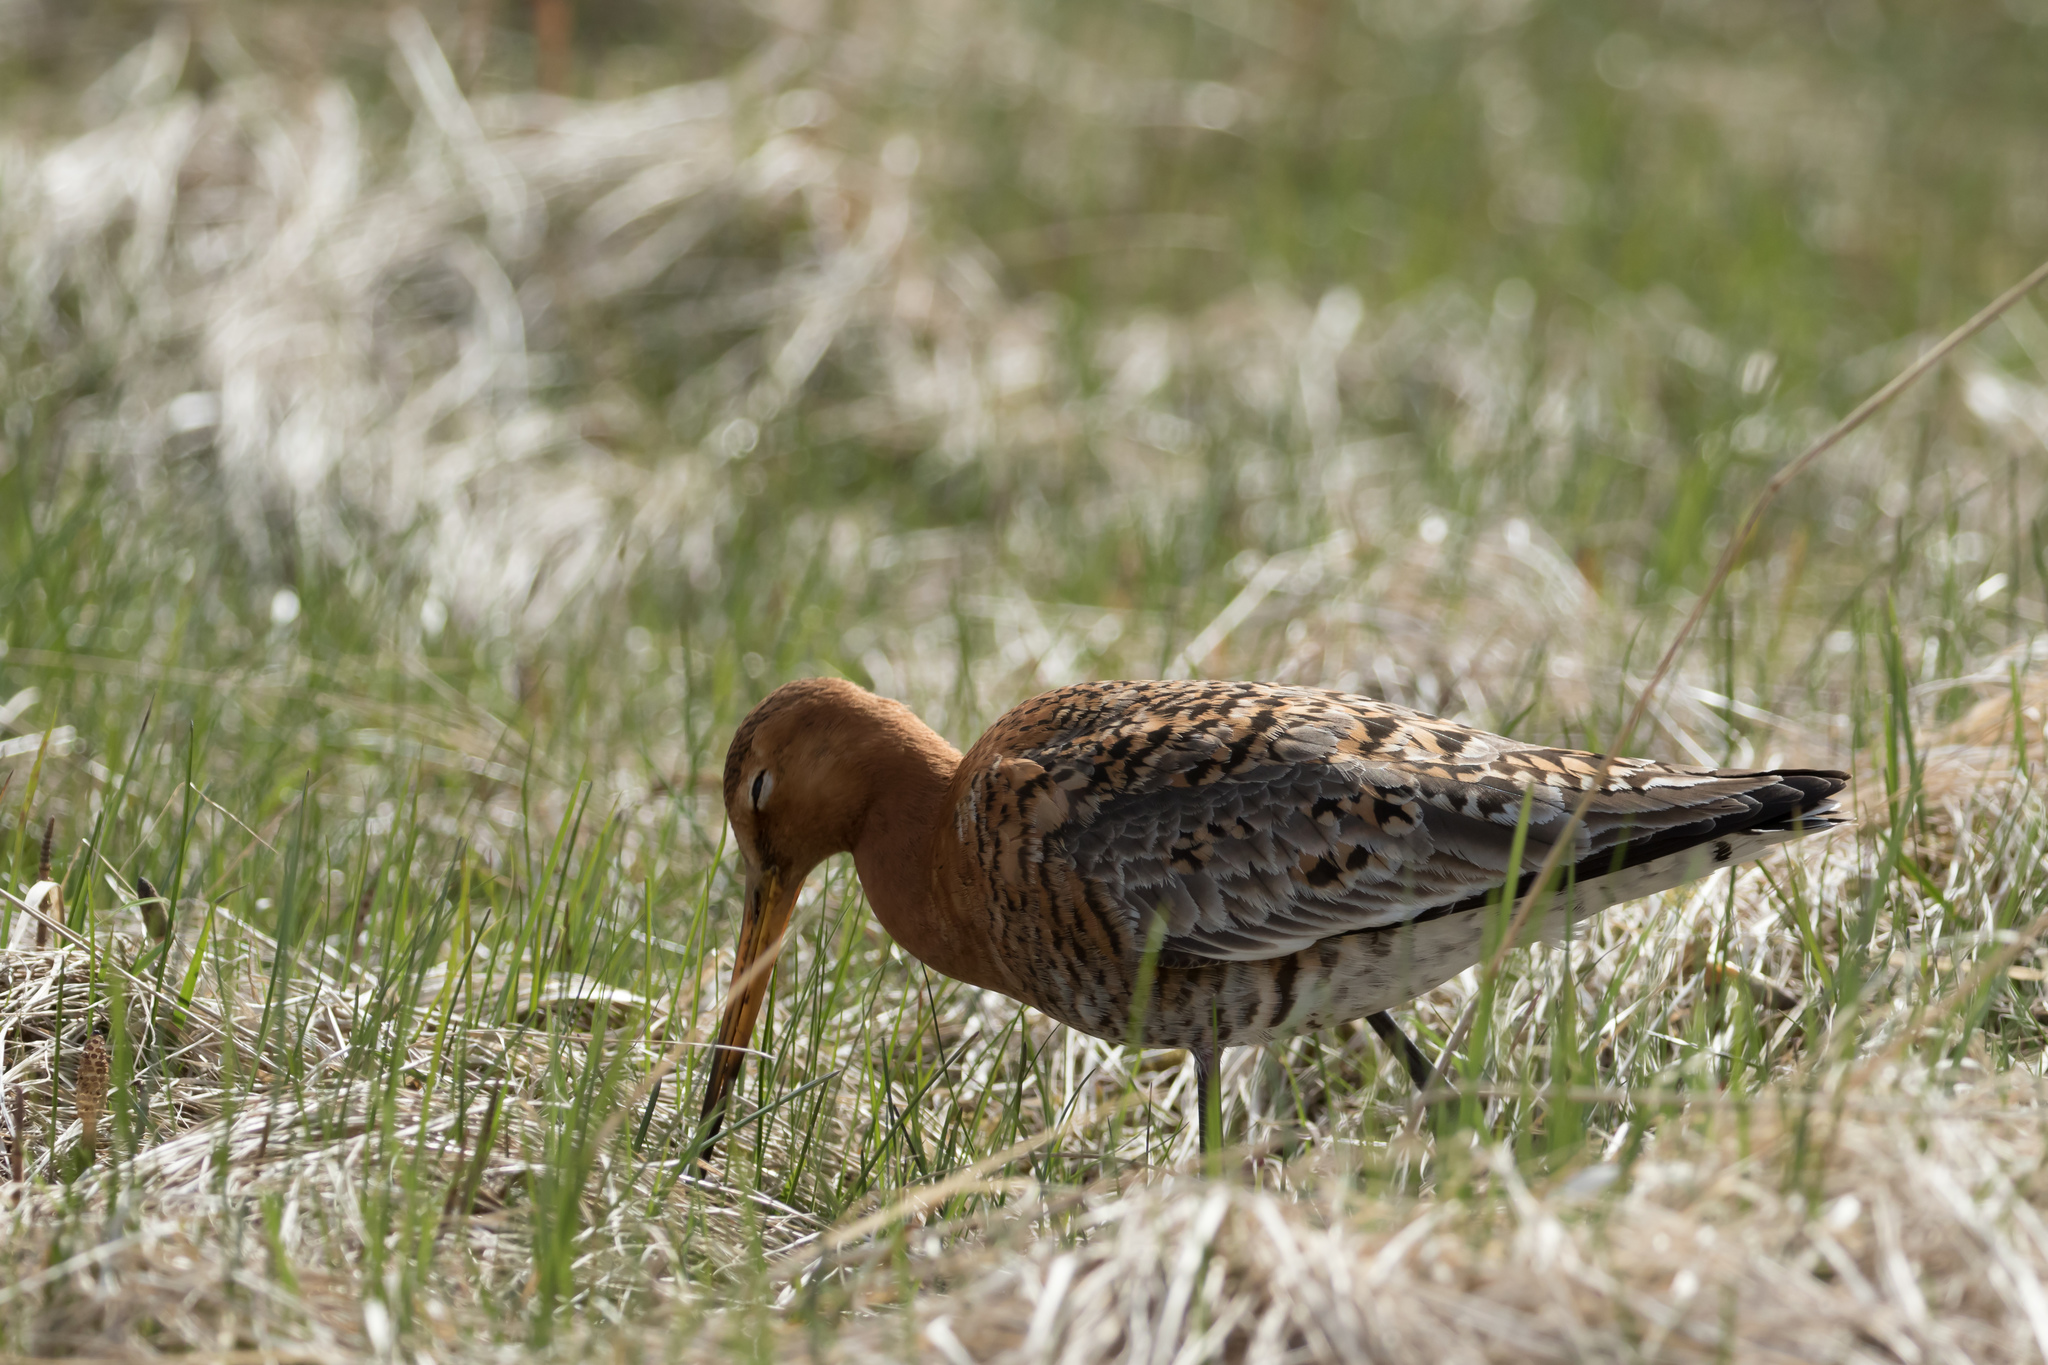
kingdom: Animalia
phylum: Chordata
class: Aves
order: Charadriiformes
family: Scolopacidae
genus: Limosa
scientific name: Limosa limosa
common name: Black-tailed godwit
